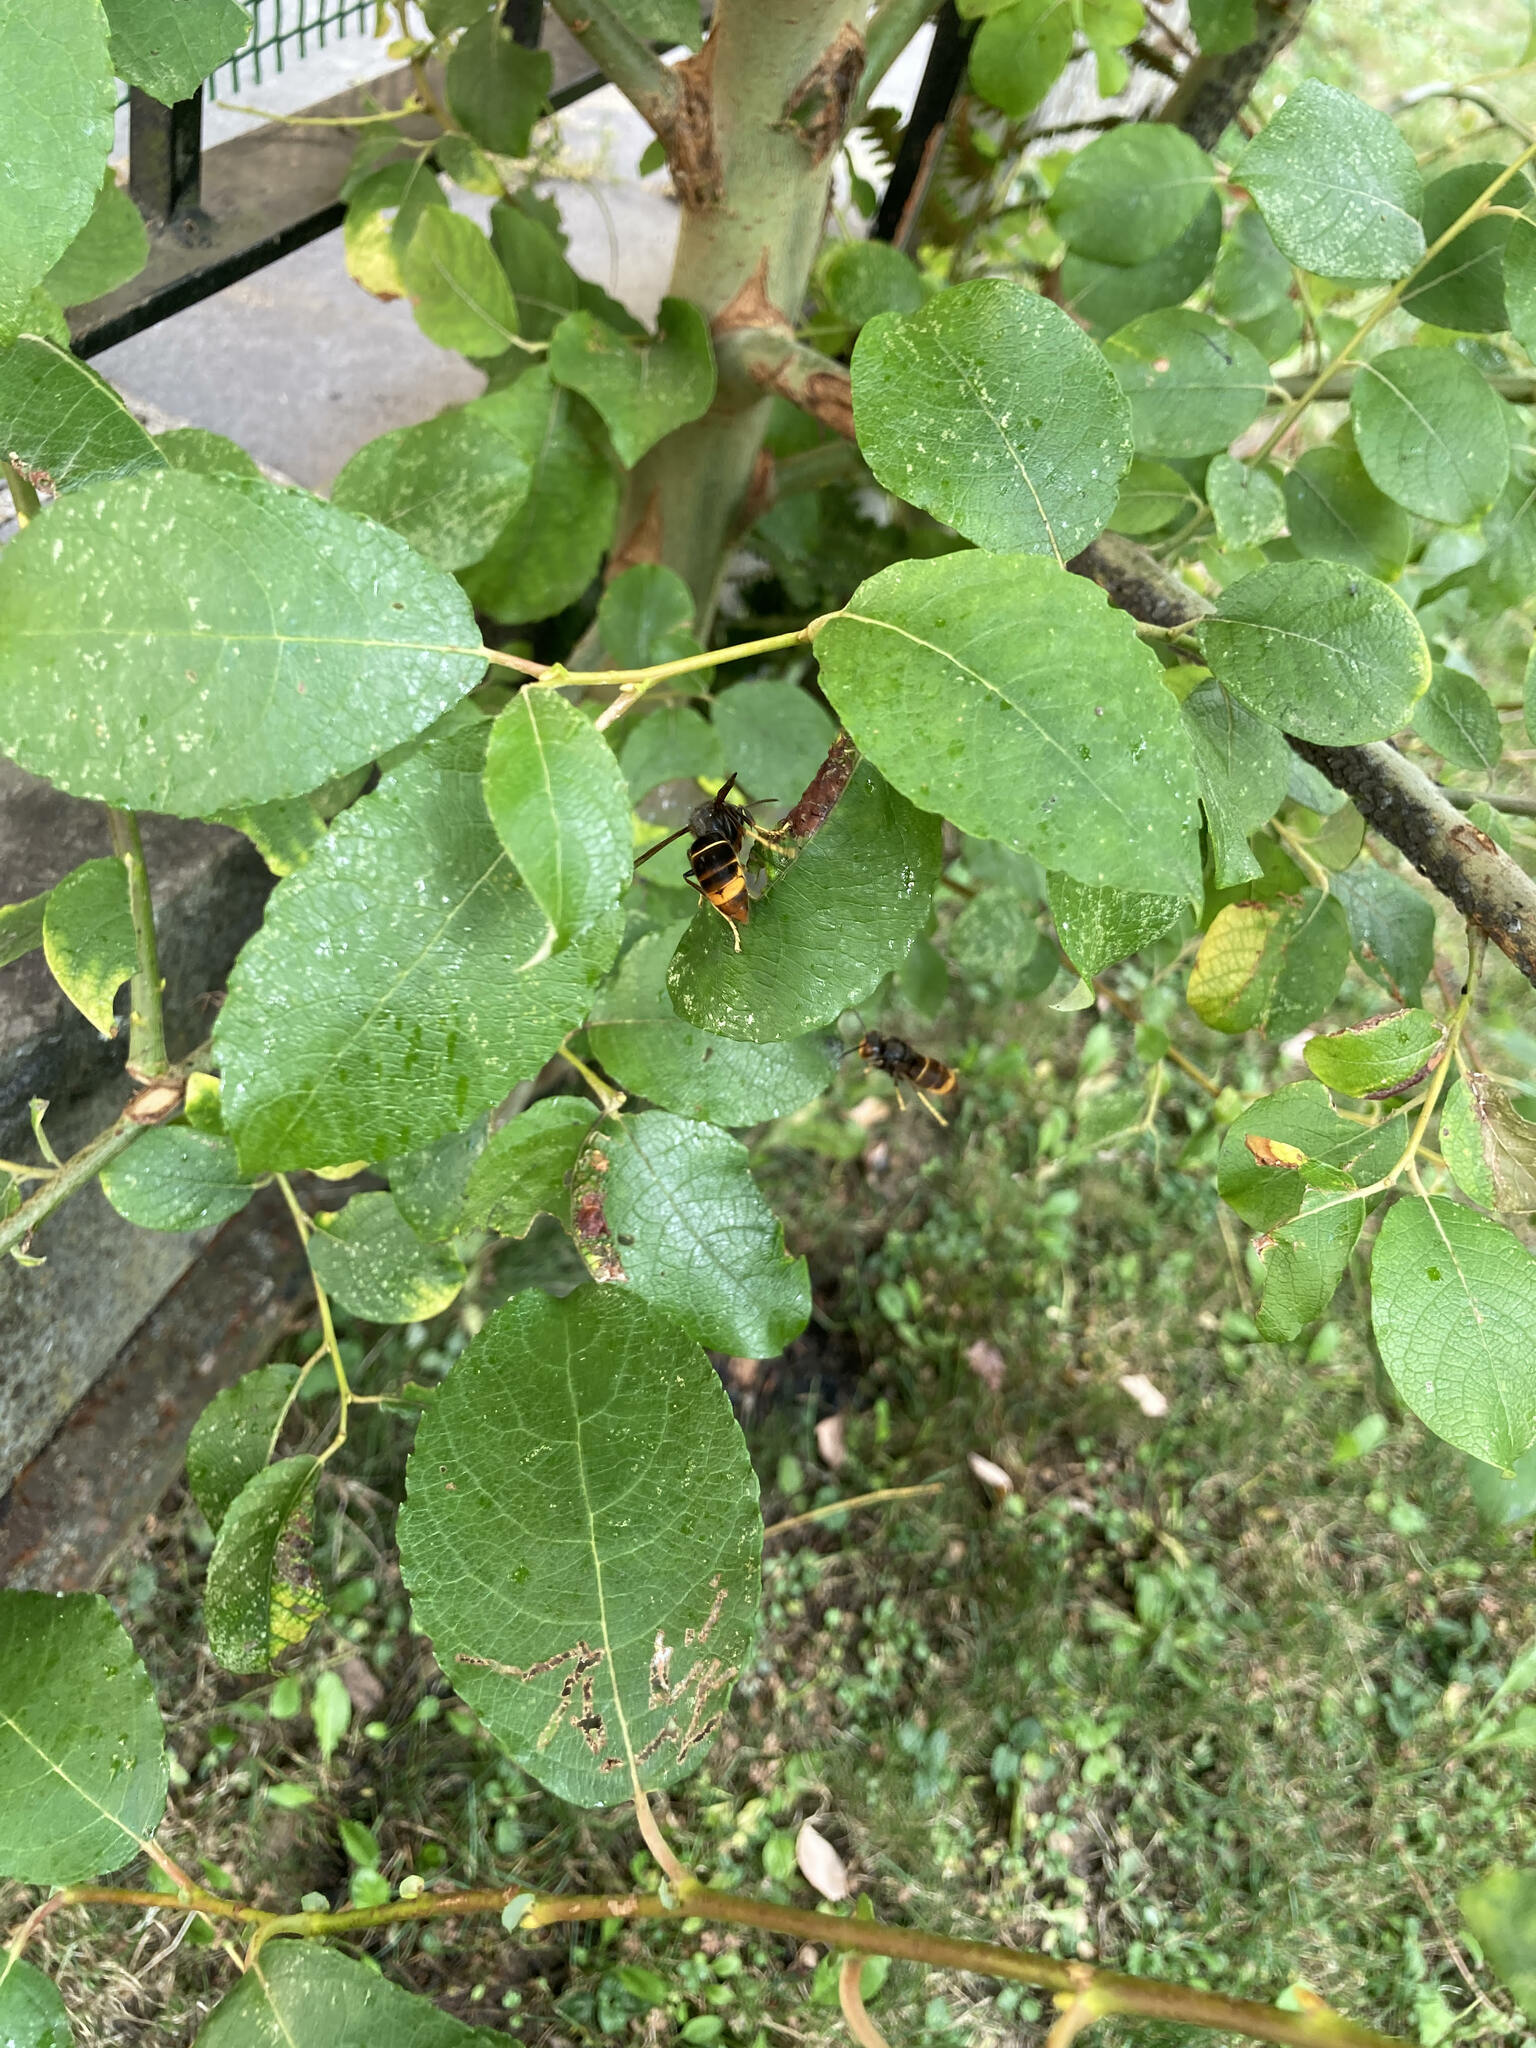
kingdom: Animalia
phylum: Arthropoda
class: Insecta
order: Hymenoptera
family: Vespidae
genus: Vespa
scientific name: Vespa velutina
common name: Asian hornet
